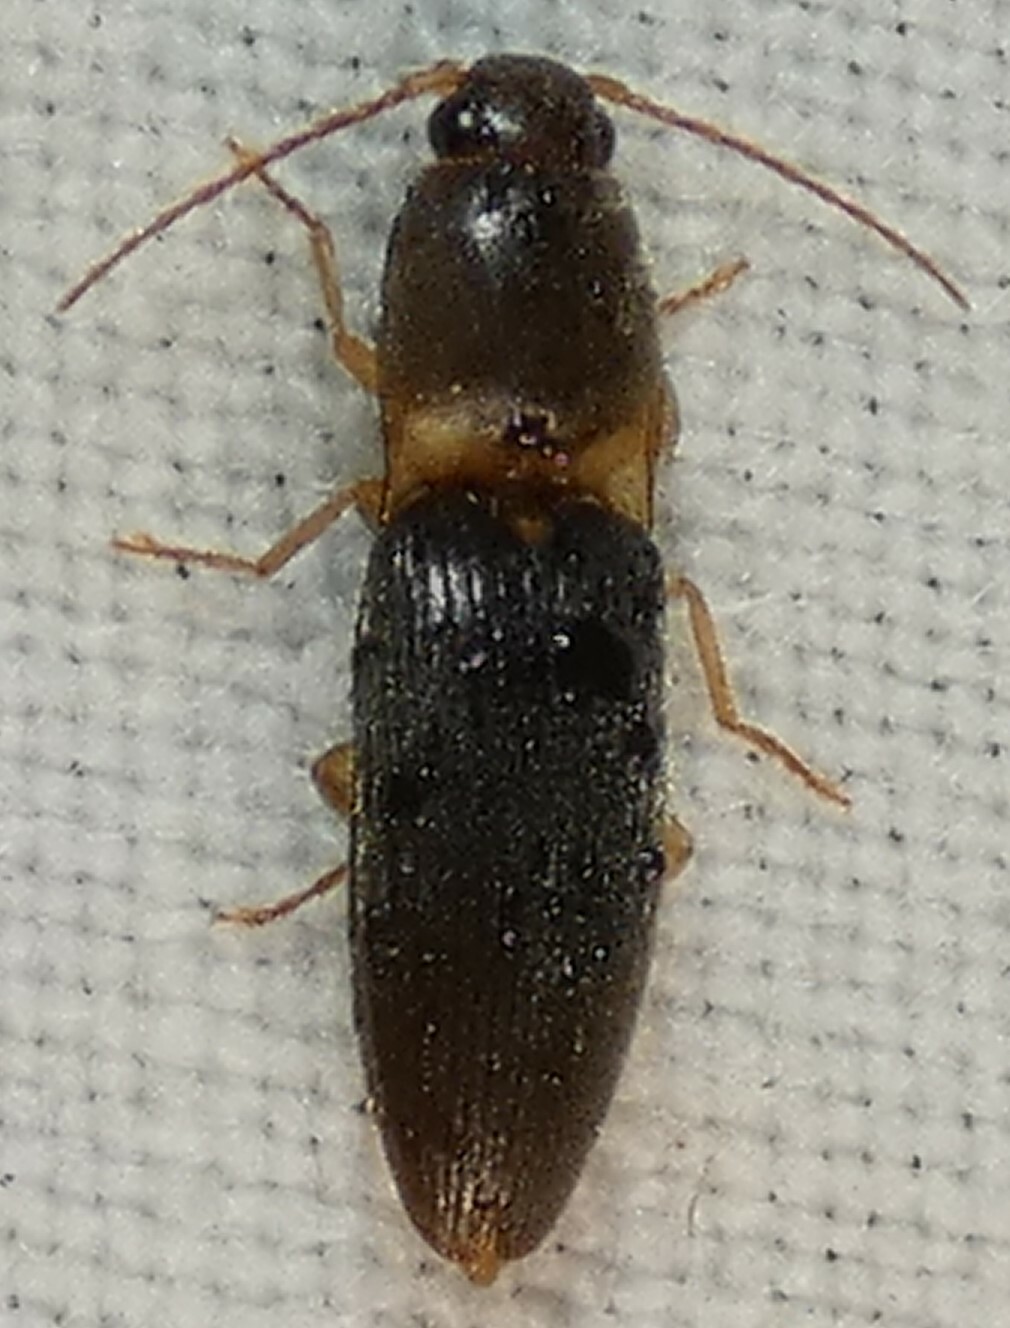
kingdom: Animalia
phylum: Arthropoda
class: Insecta
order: Coleoptera
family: Elateridae
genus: Monocrepidius
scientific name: Monocrepidius aversus
